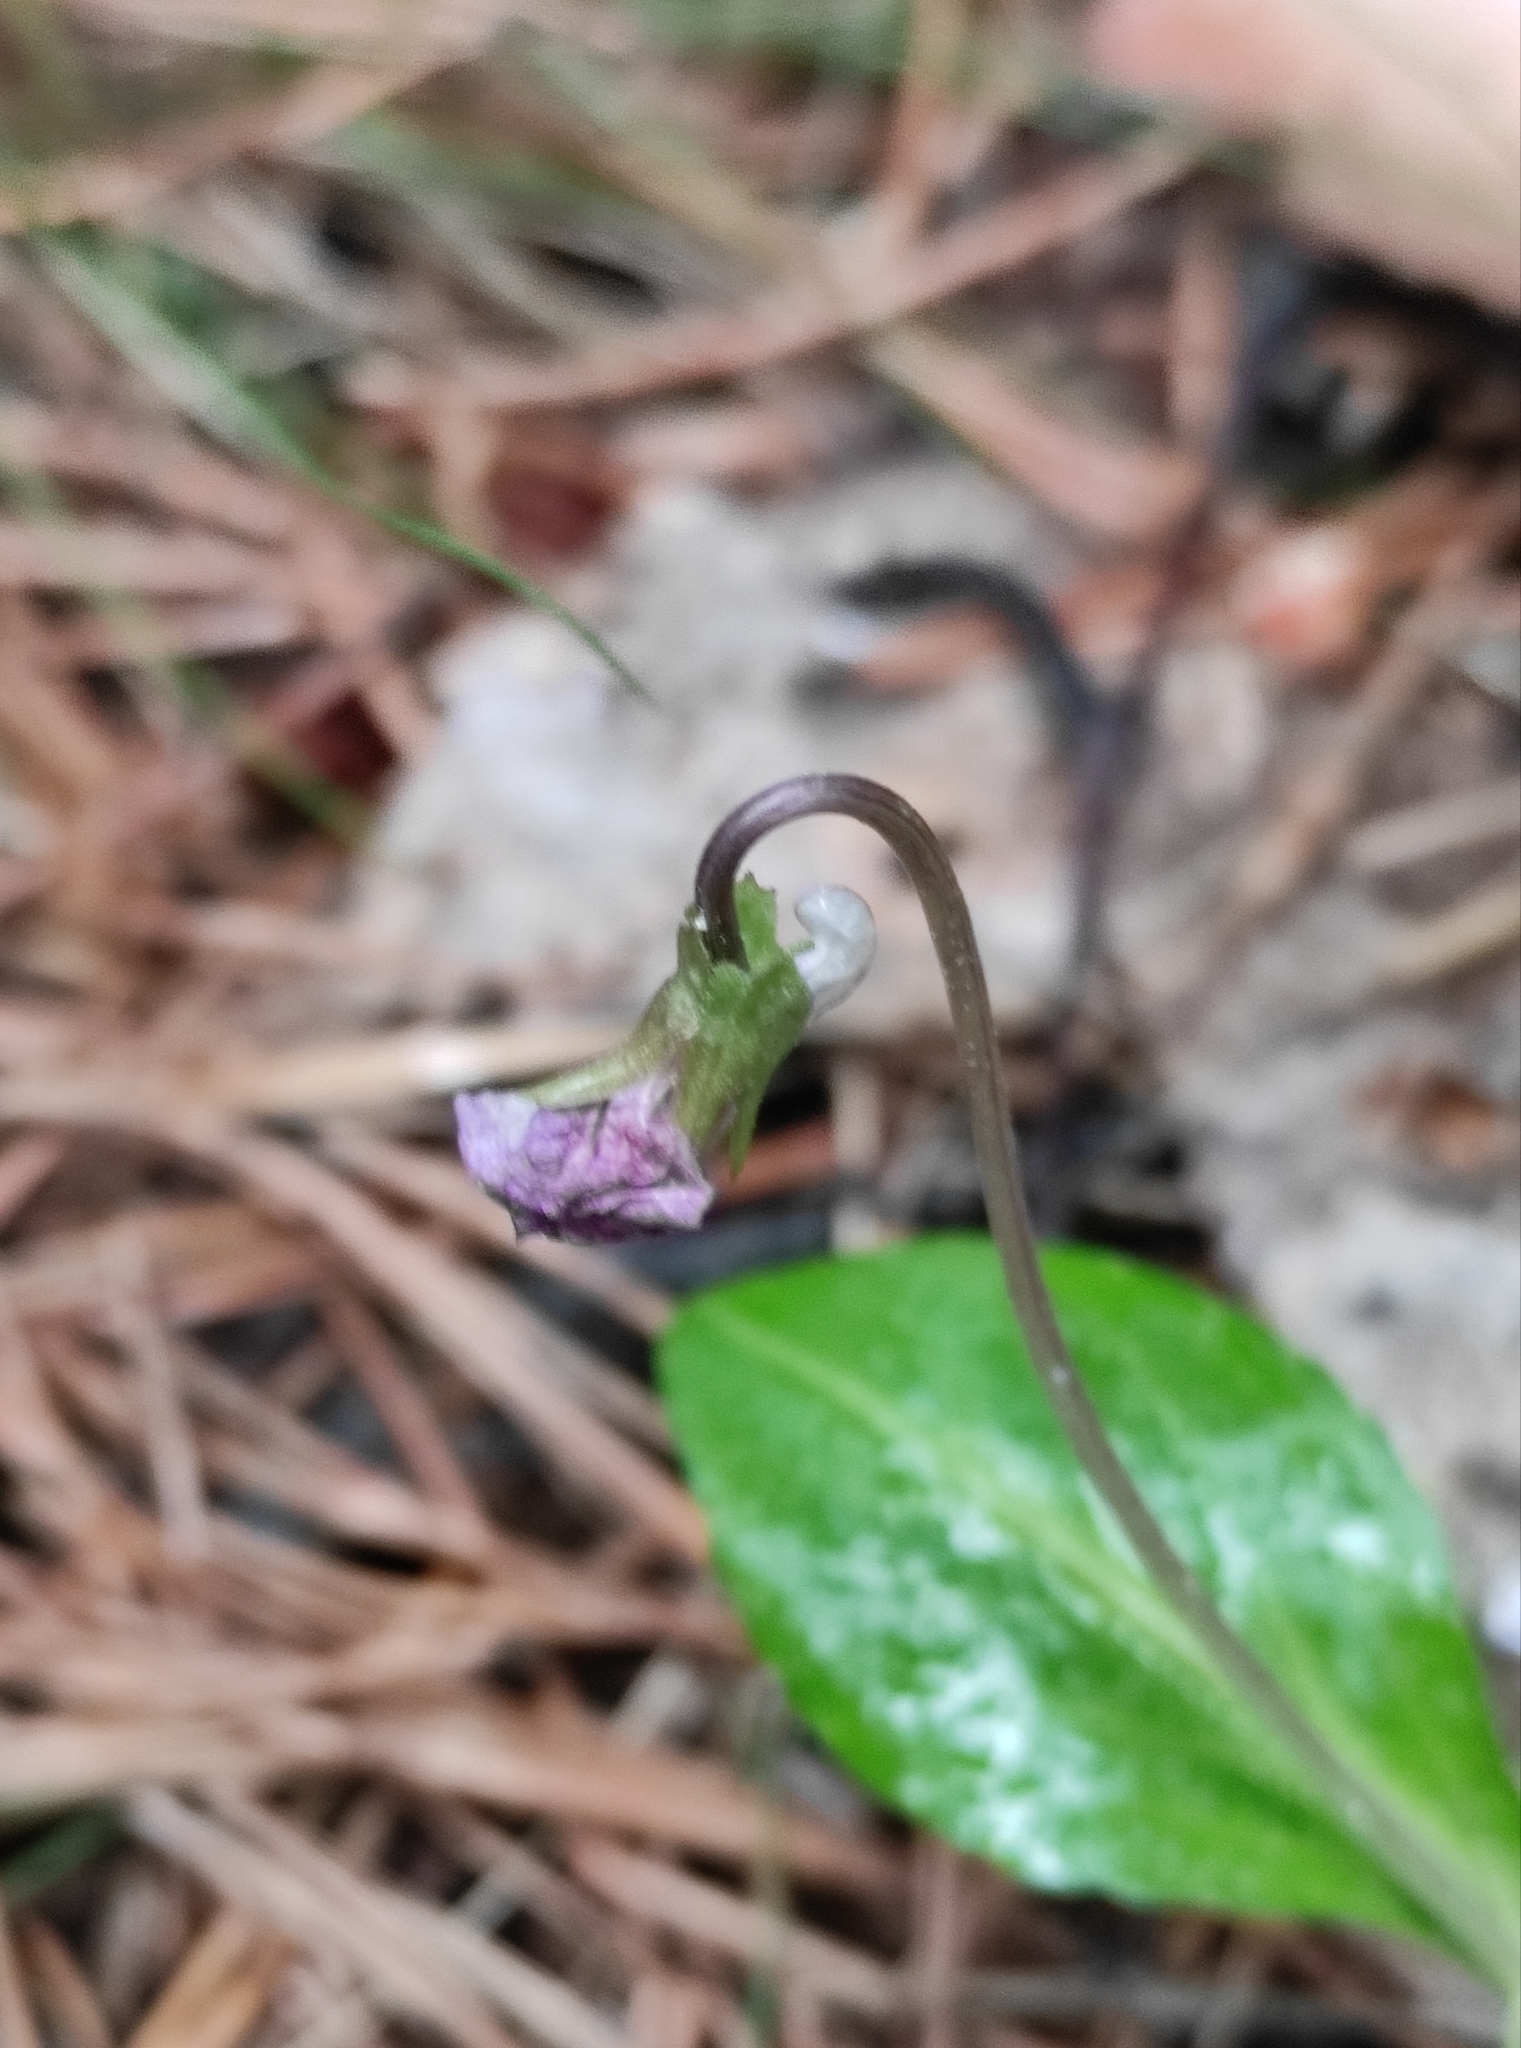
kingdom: Plantae
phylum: Tracheophyta
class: Magnoliopsida
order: Malpighiales
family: Violaceae
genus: Viola
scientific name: Viola gmeliniana
